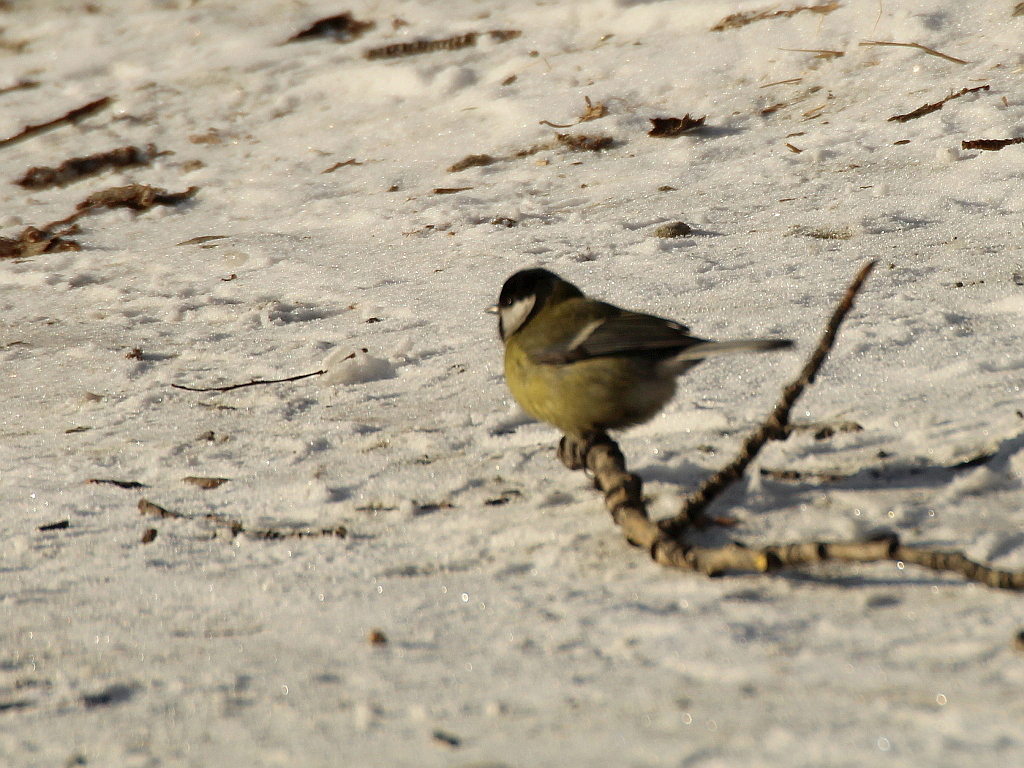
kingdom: Animalia
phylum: Chordata
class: Aves
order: Passeriformes
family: Paridae
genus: Parus
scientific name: Parus major
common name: Great tit
